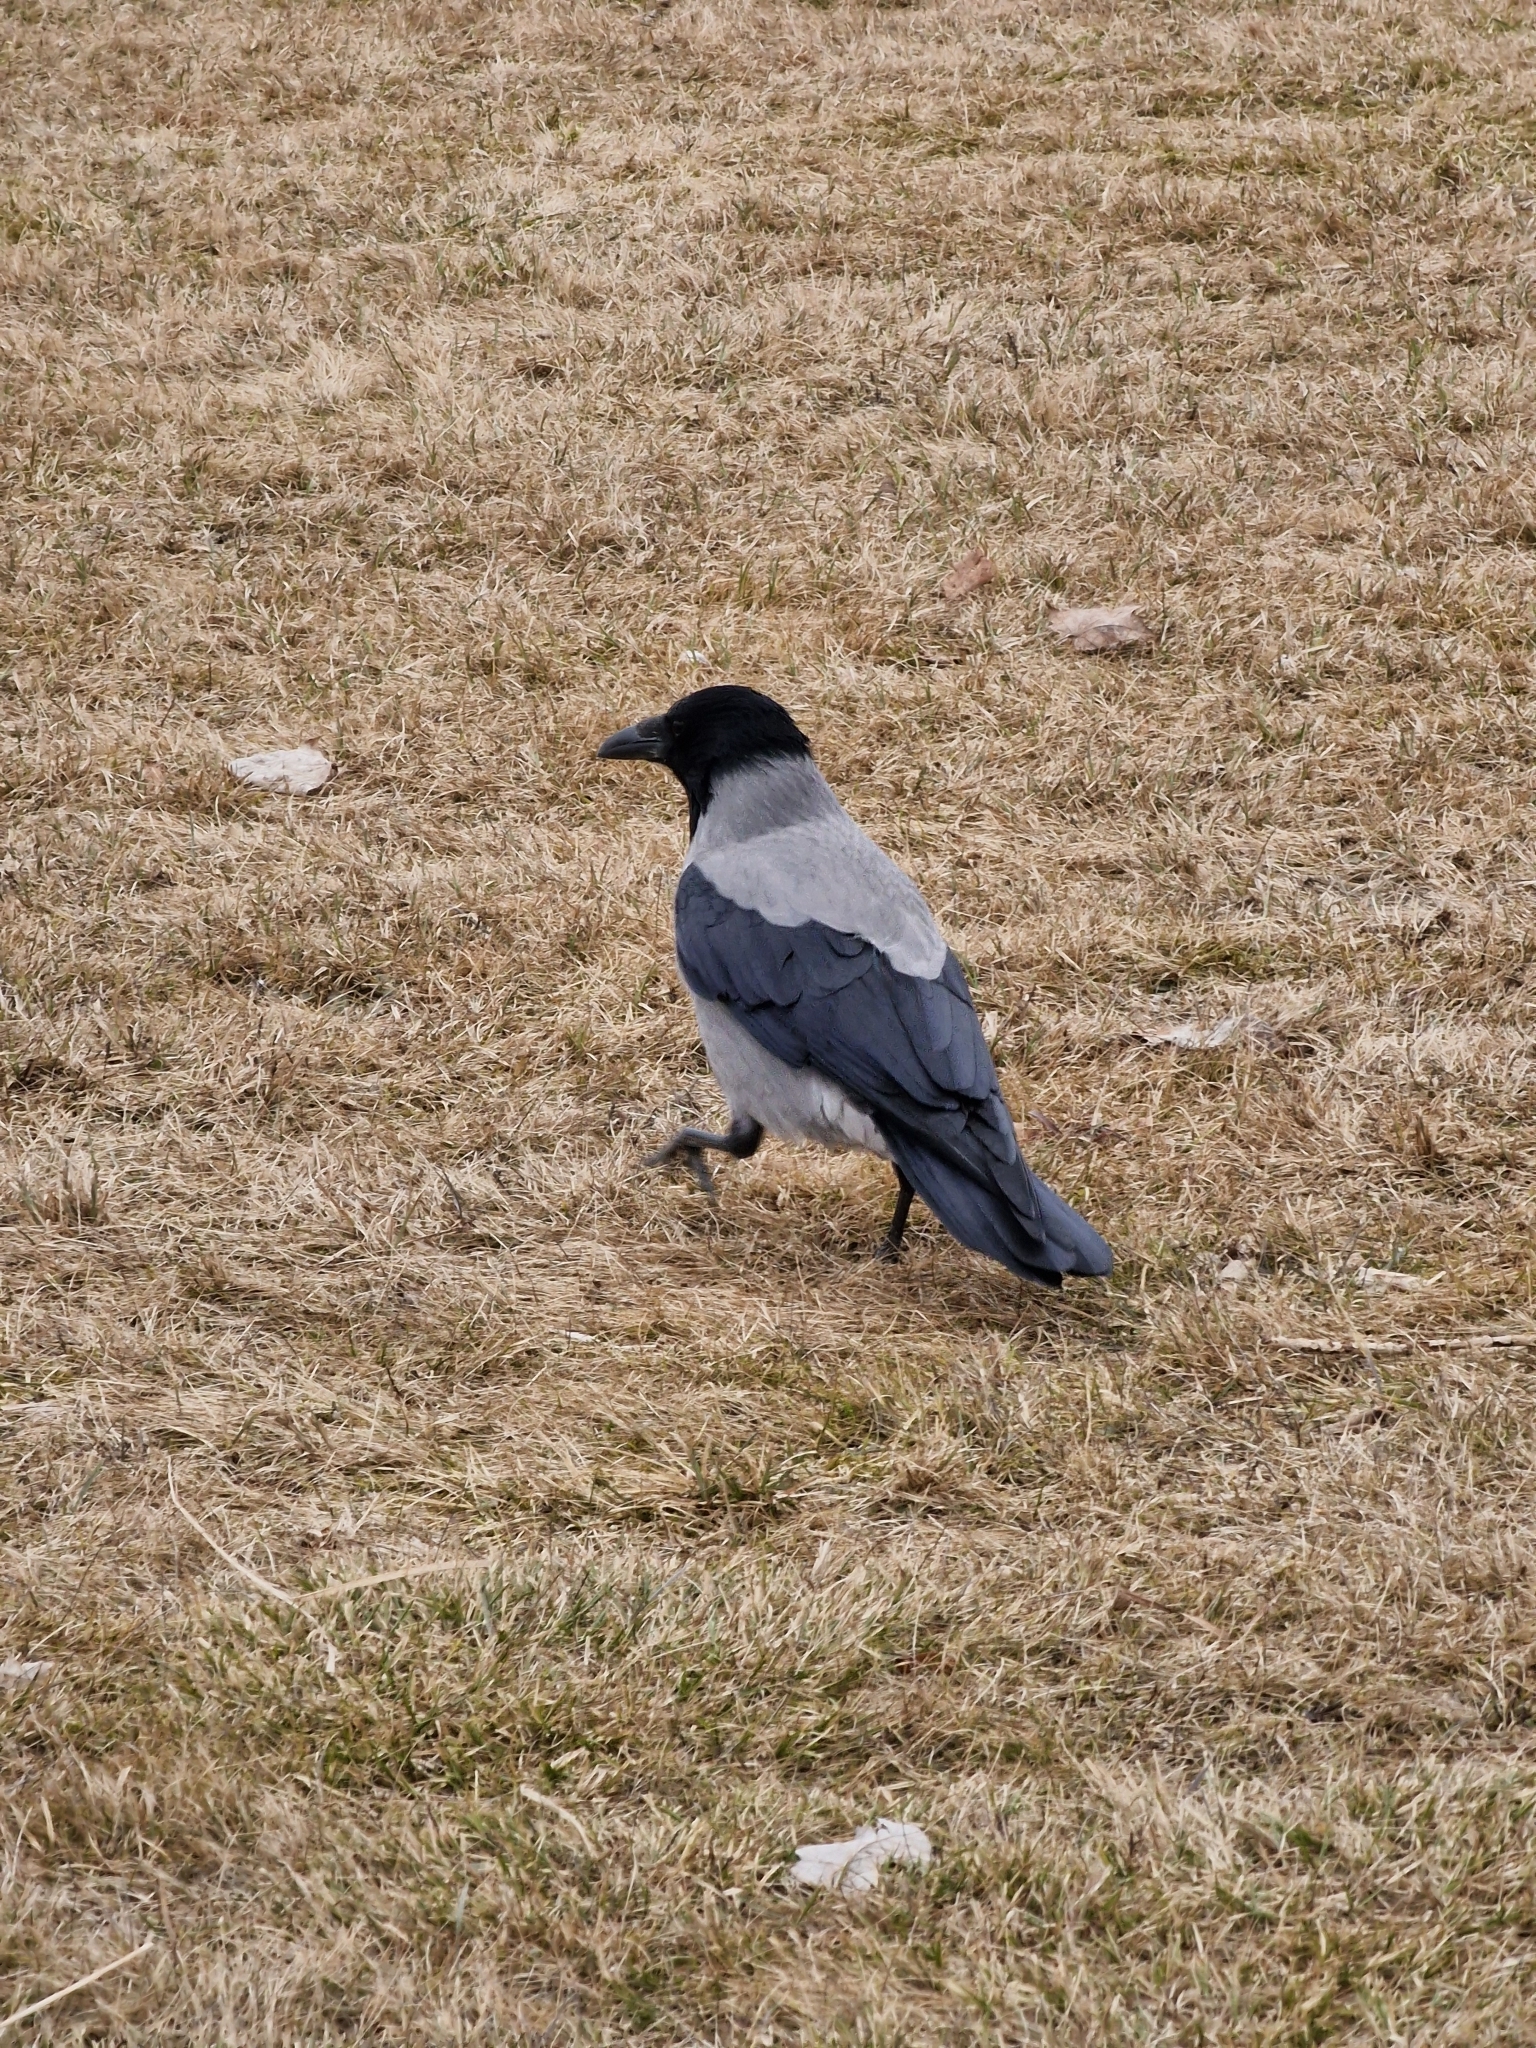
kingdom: Animalia
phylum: Chordata
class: Aves
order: Passeriformes
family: Corvidae
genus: Corvus
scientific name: Corvus cornix
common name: Hooded crow
